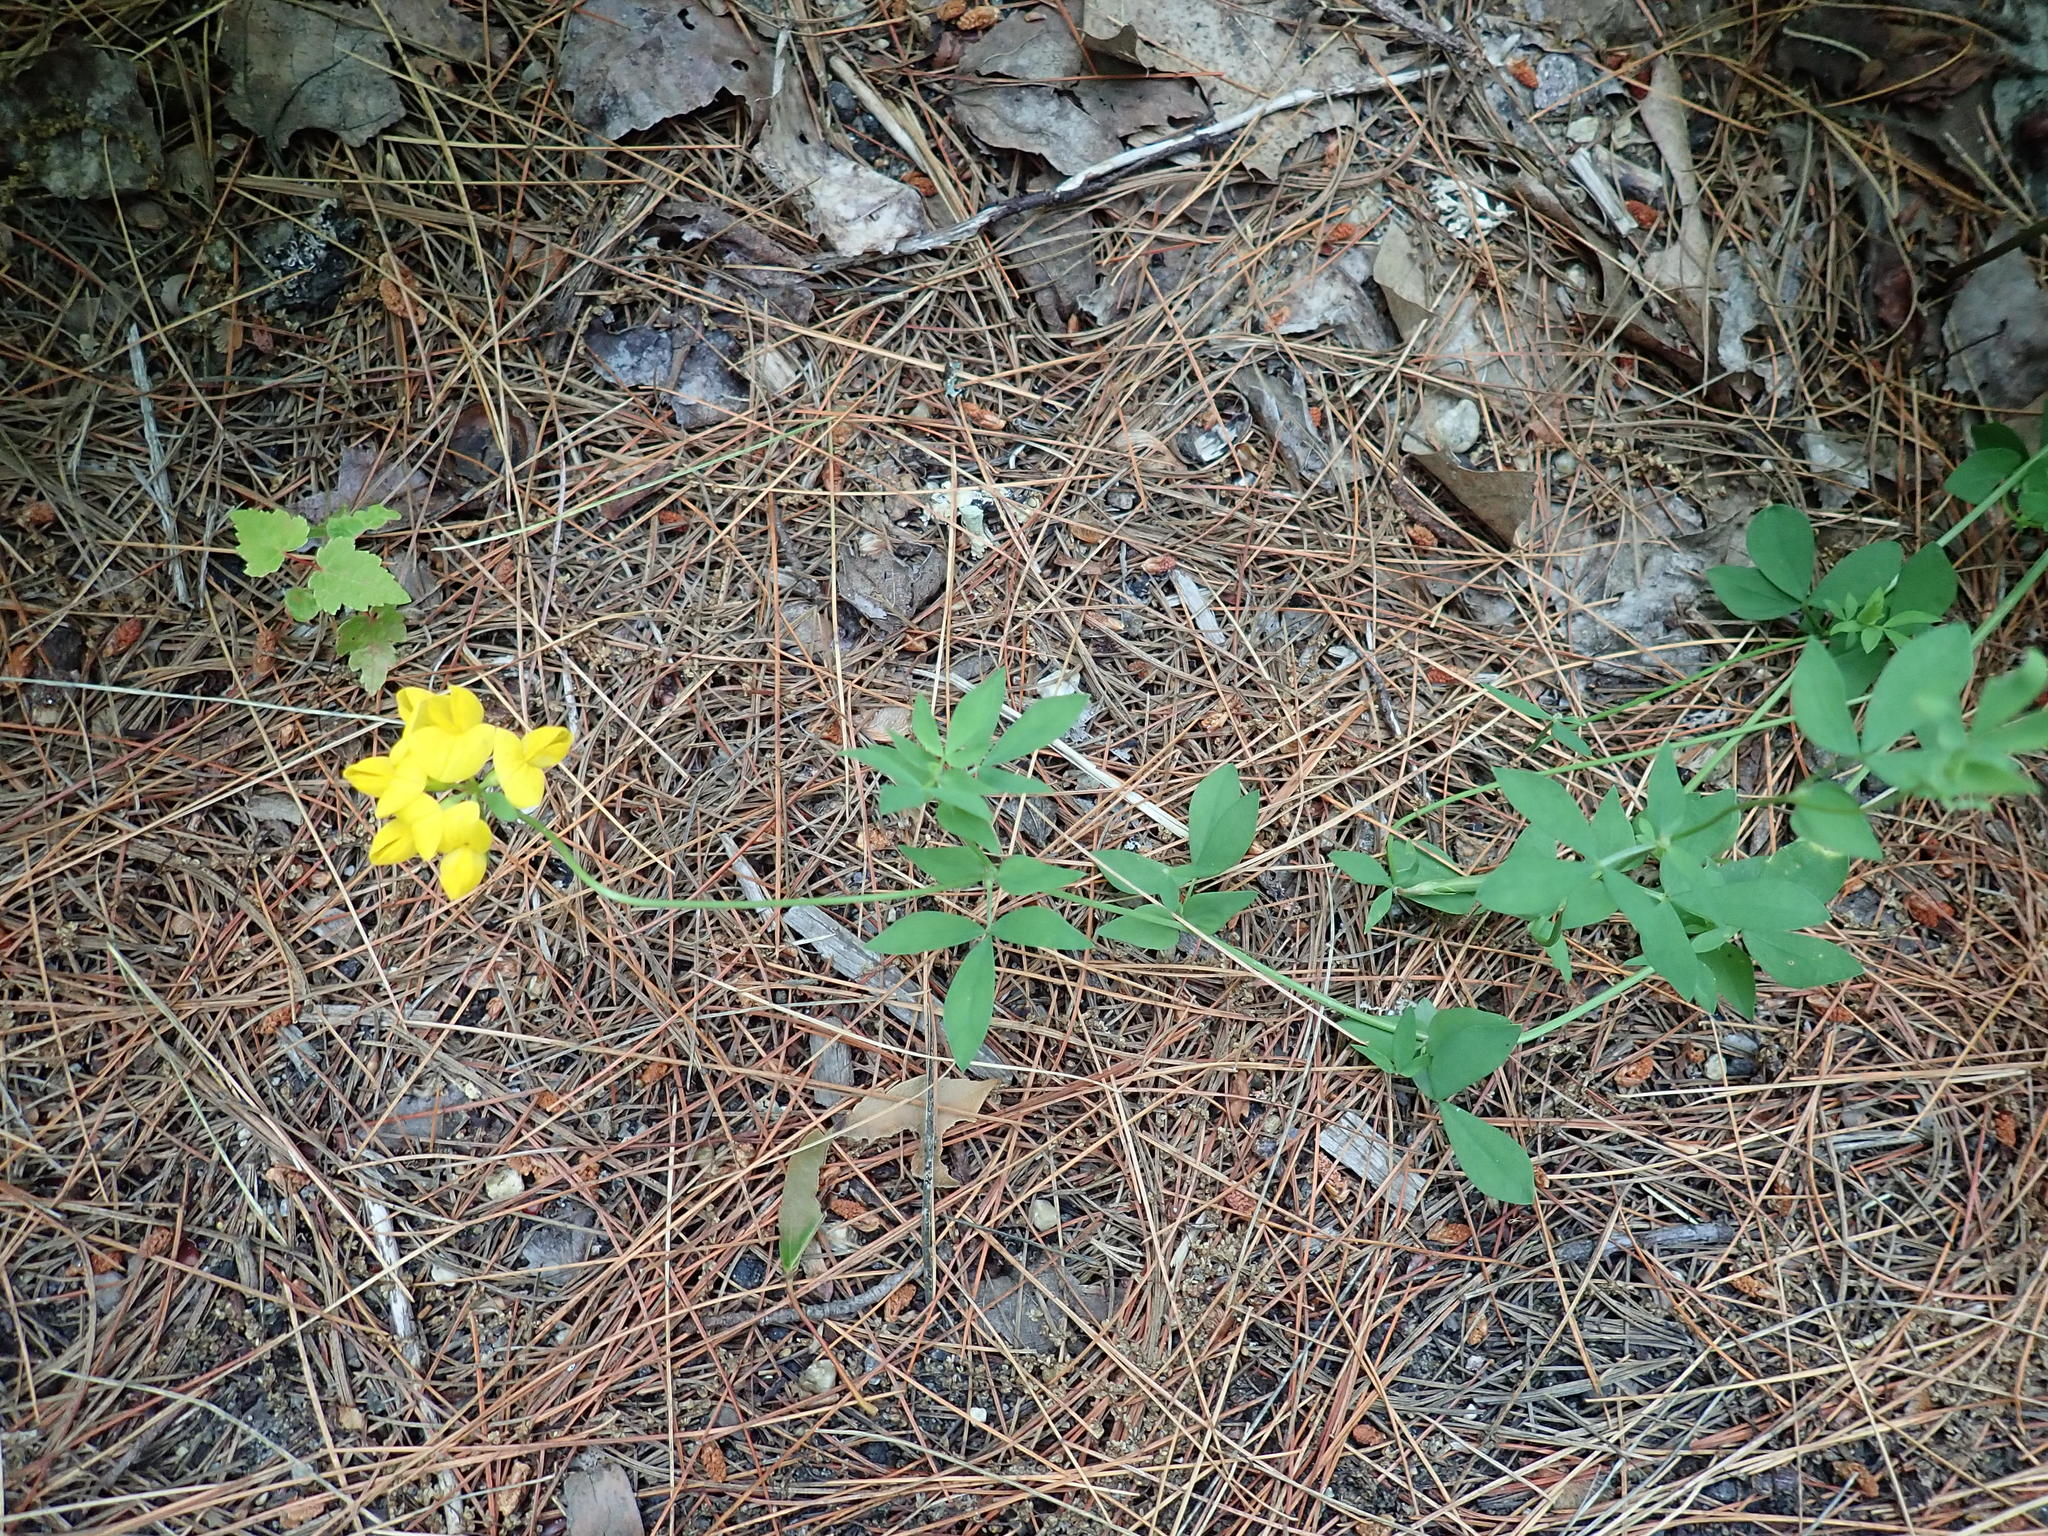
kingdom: Plantae
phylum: Tracheophyta
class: Magnoliopsida
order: Fabales
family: Fabaceae
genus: Lotus
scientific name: Lotus corniculatus
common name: Common bird's-foot-trefoil
